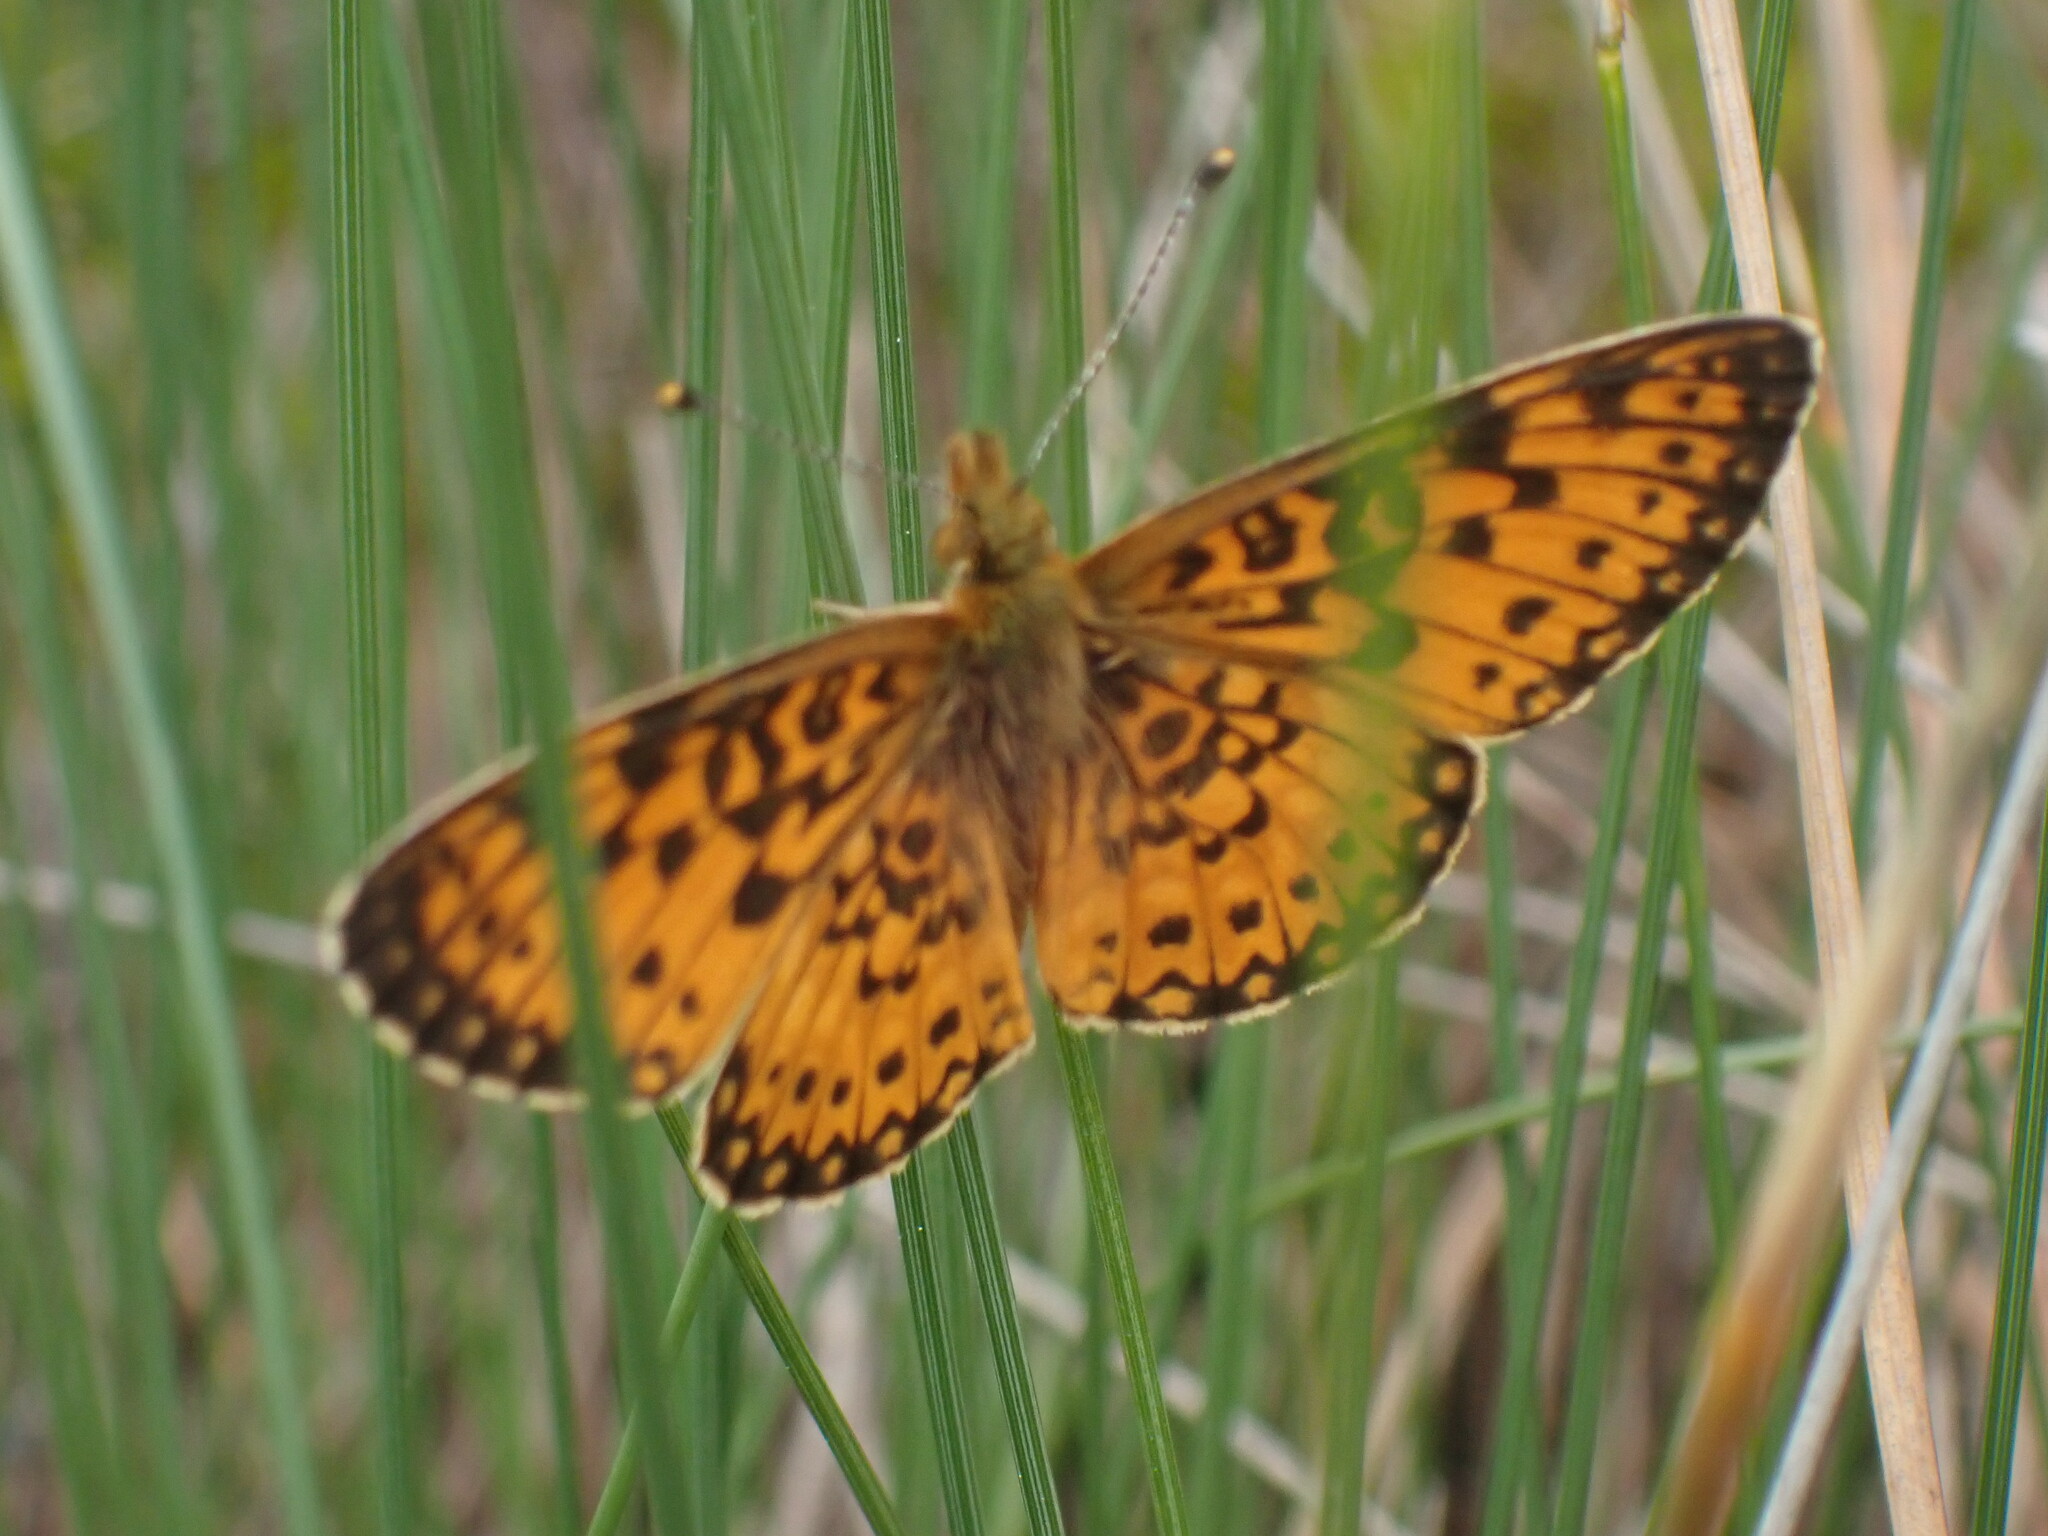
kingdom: Animalia
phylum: Arthropoda
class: Insecta
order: Lepidoptera
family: Nymphalidae
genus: Boloria
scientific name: Boloria
